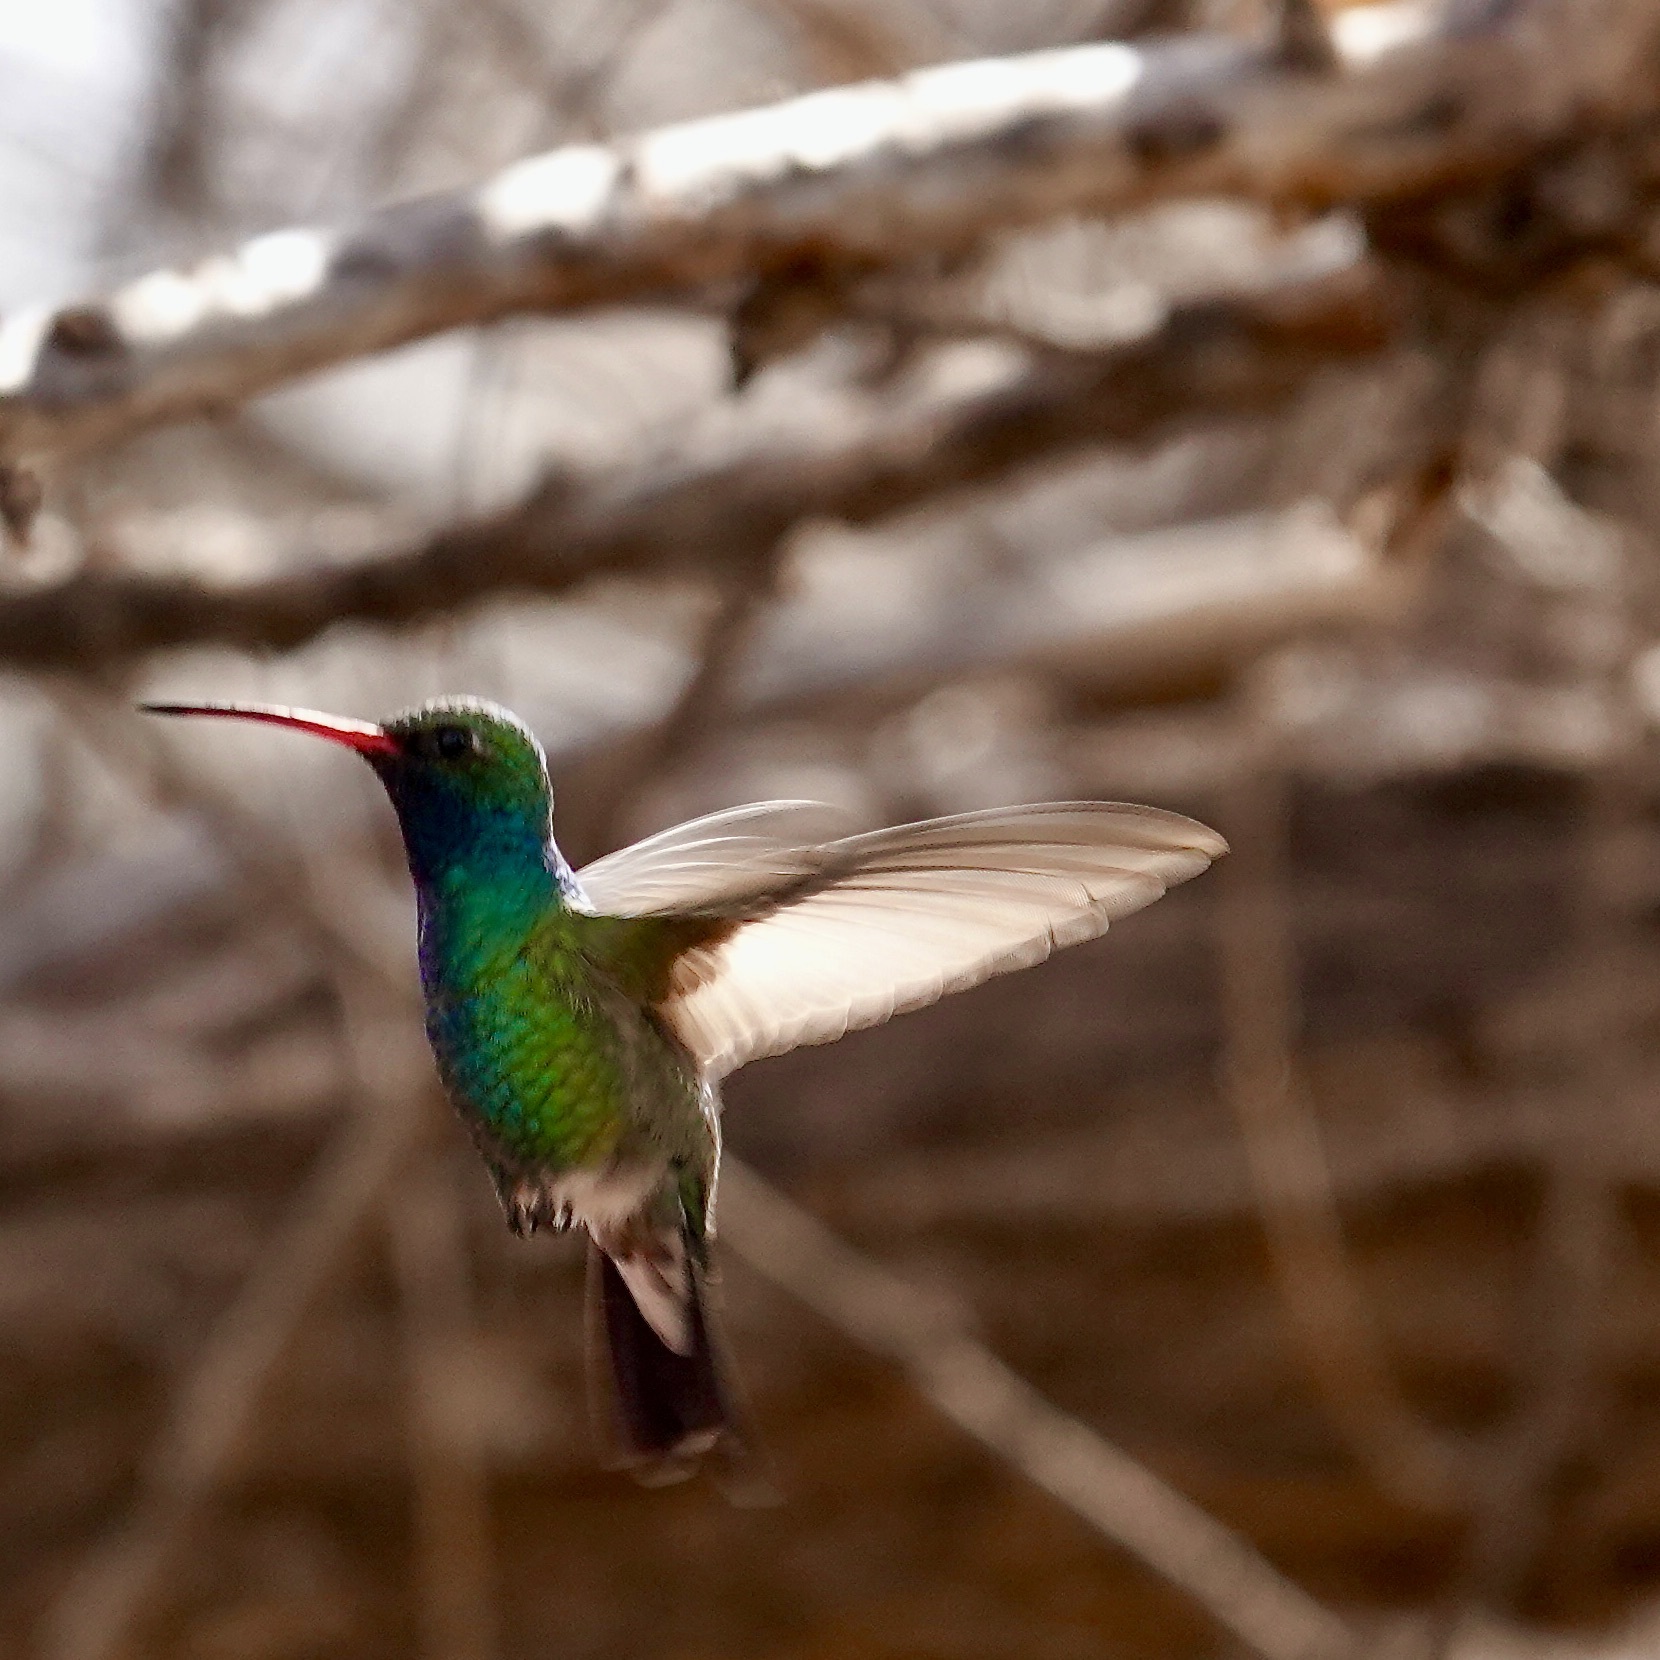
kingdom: Animalia
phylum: Chordata
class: Aves
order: Apodiformes
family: Trochilidae
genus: Cynanthus
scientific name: Cynanthus latirostris
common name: Broad-billed hummingbird
